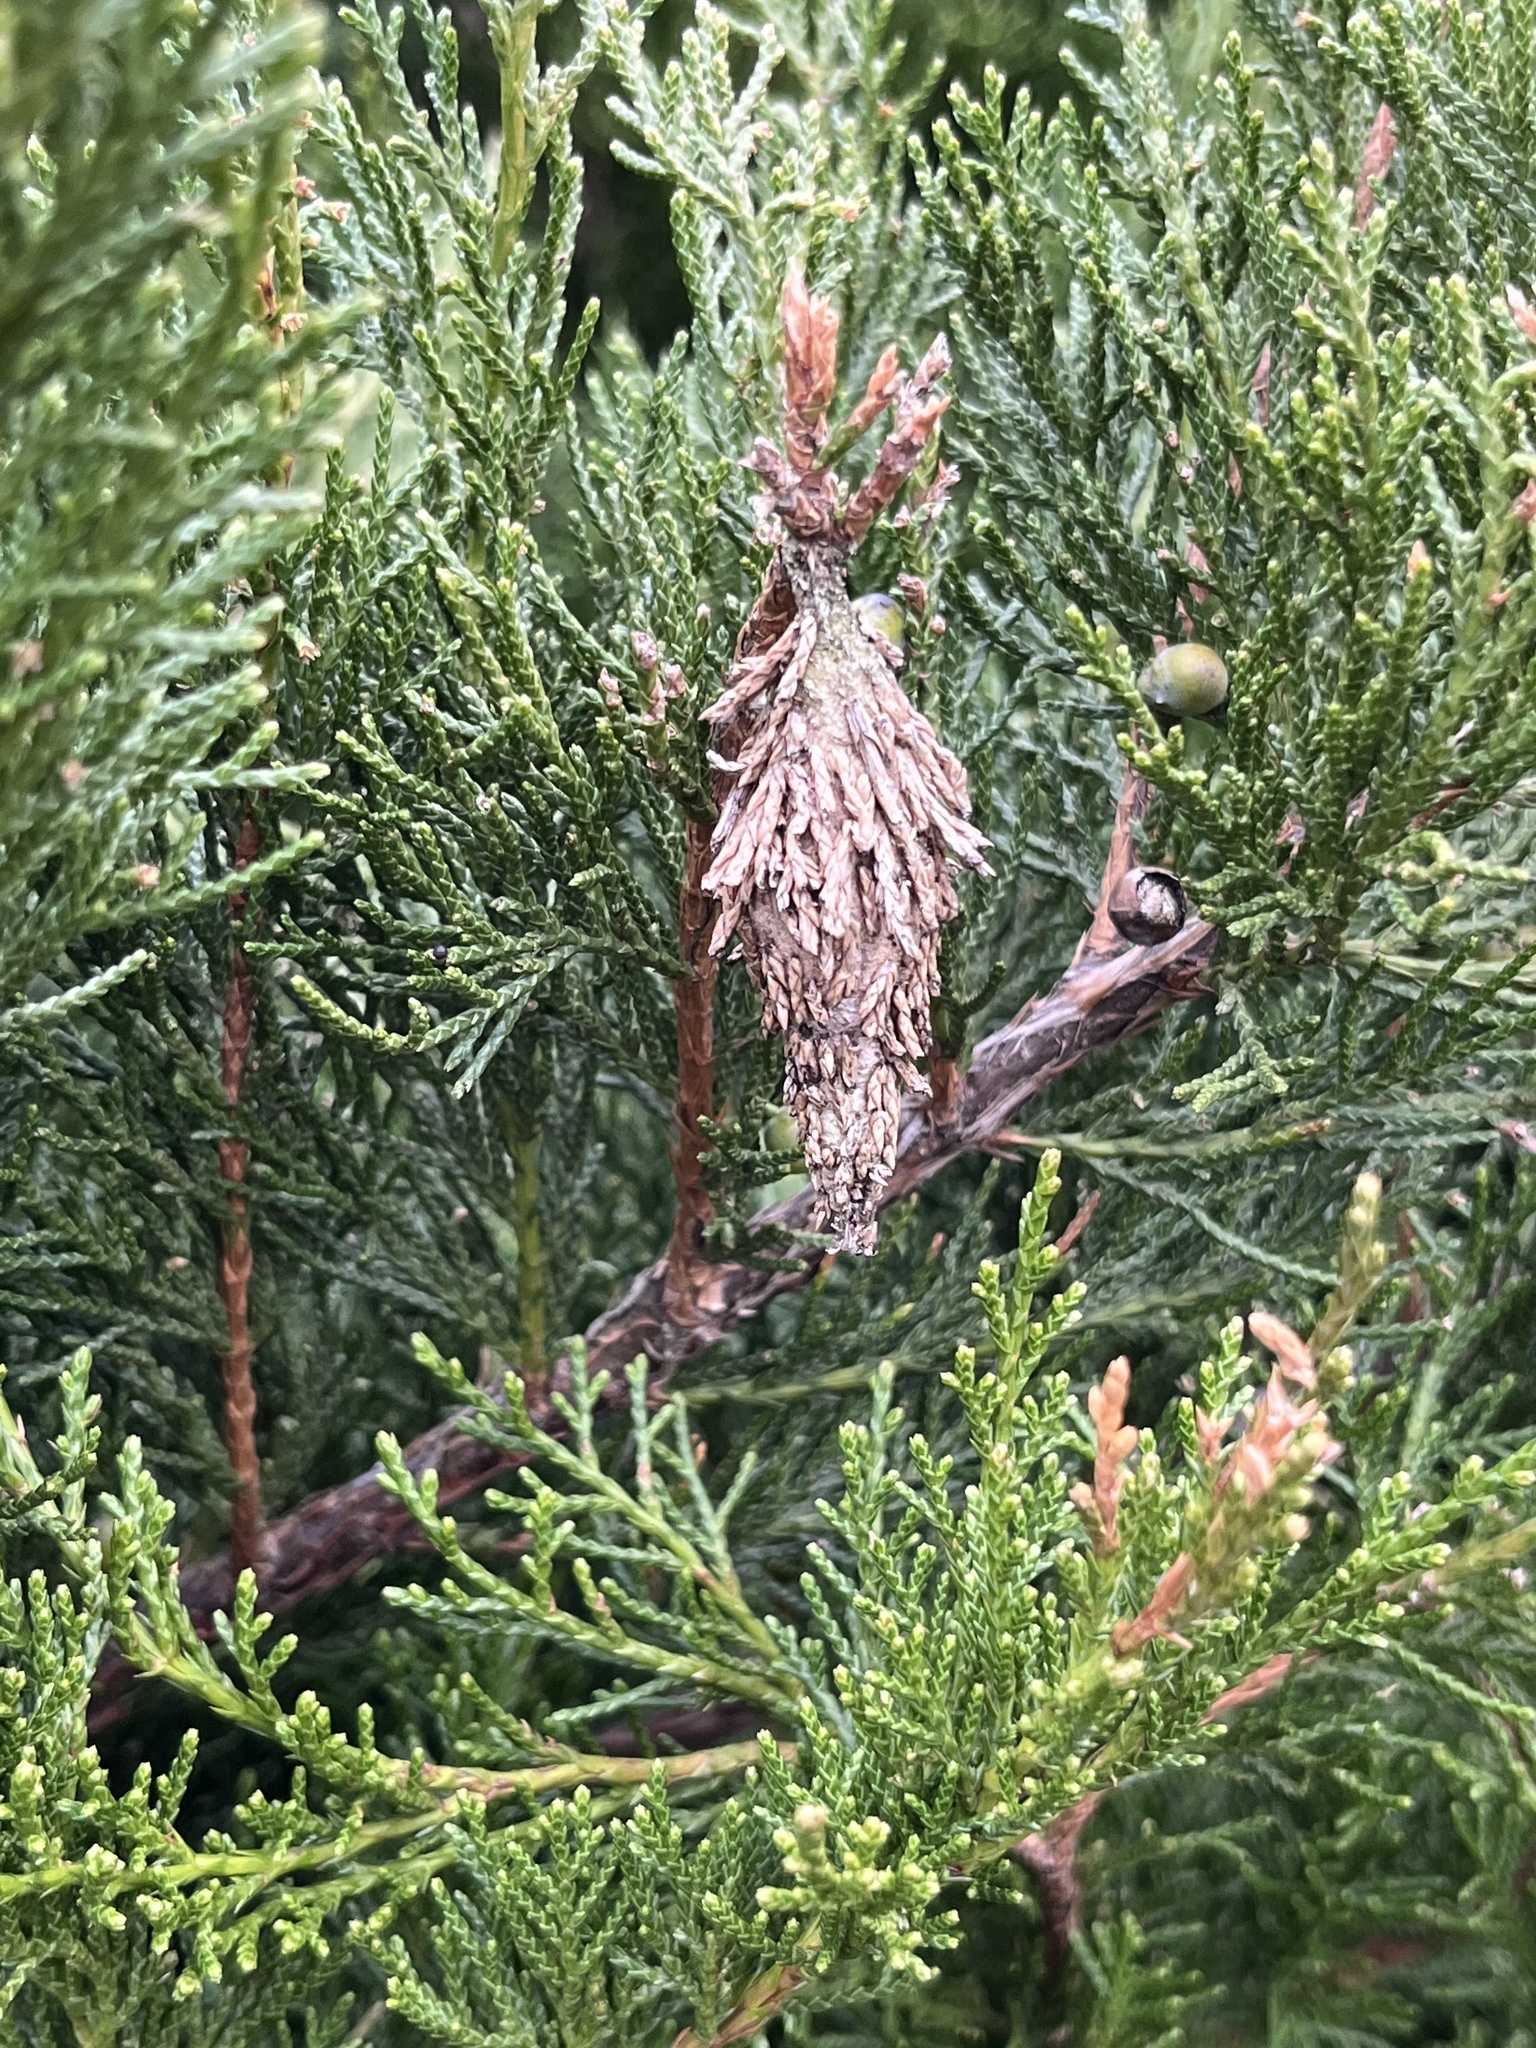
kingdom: Animalia
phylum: Arthropoda
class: Insecta
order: Lepidoptera
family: Psychidae
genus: Thyridopteryx
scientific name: Thyridopteryx ephemeraeformis
